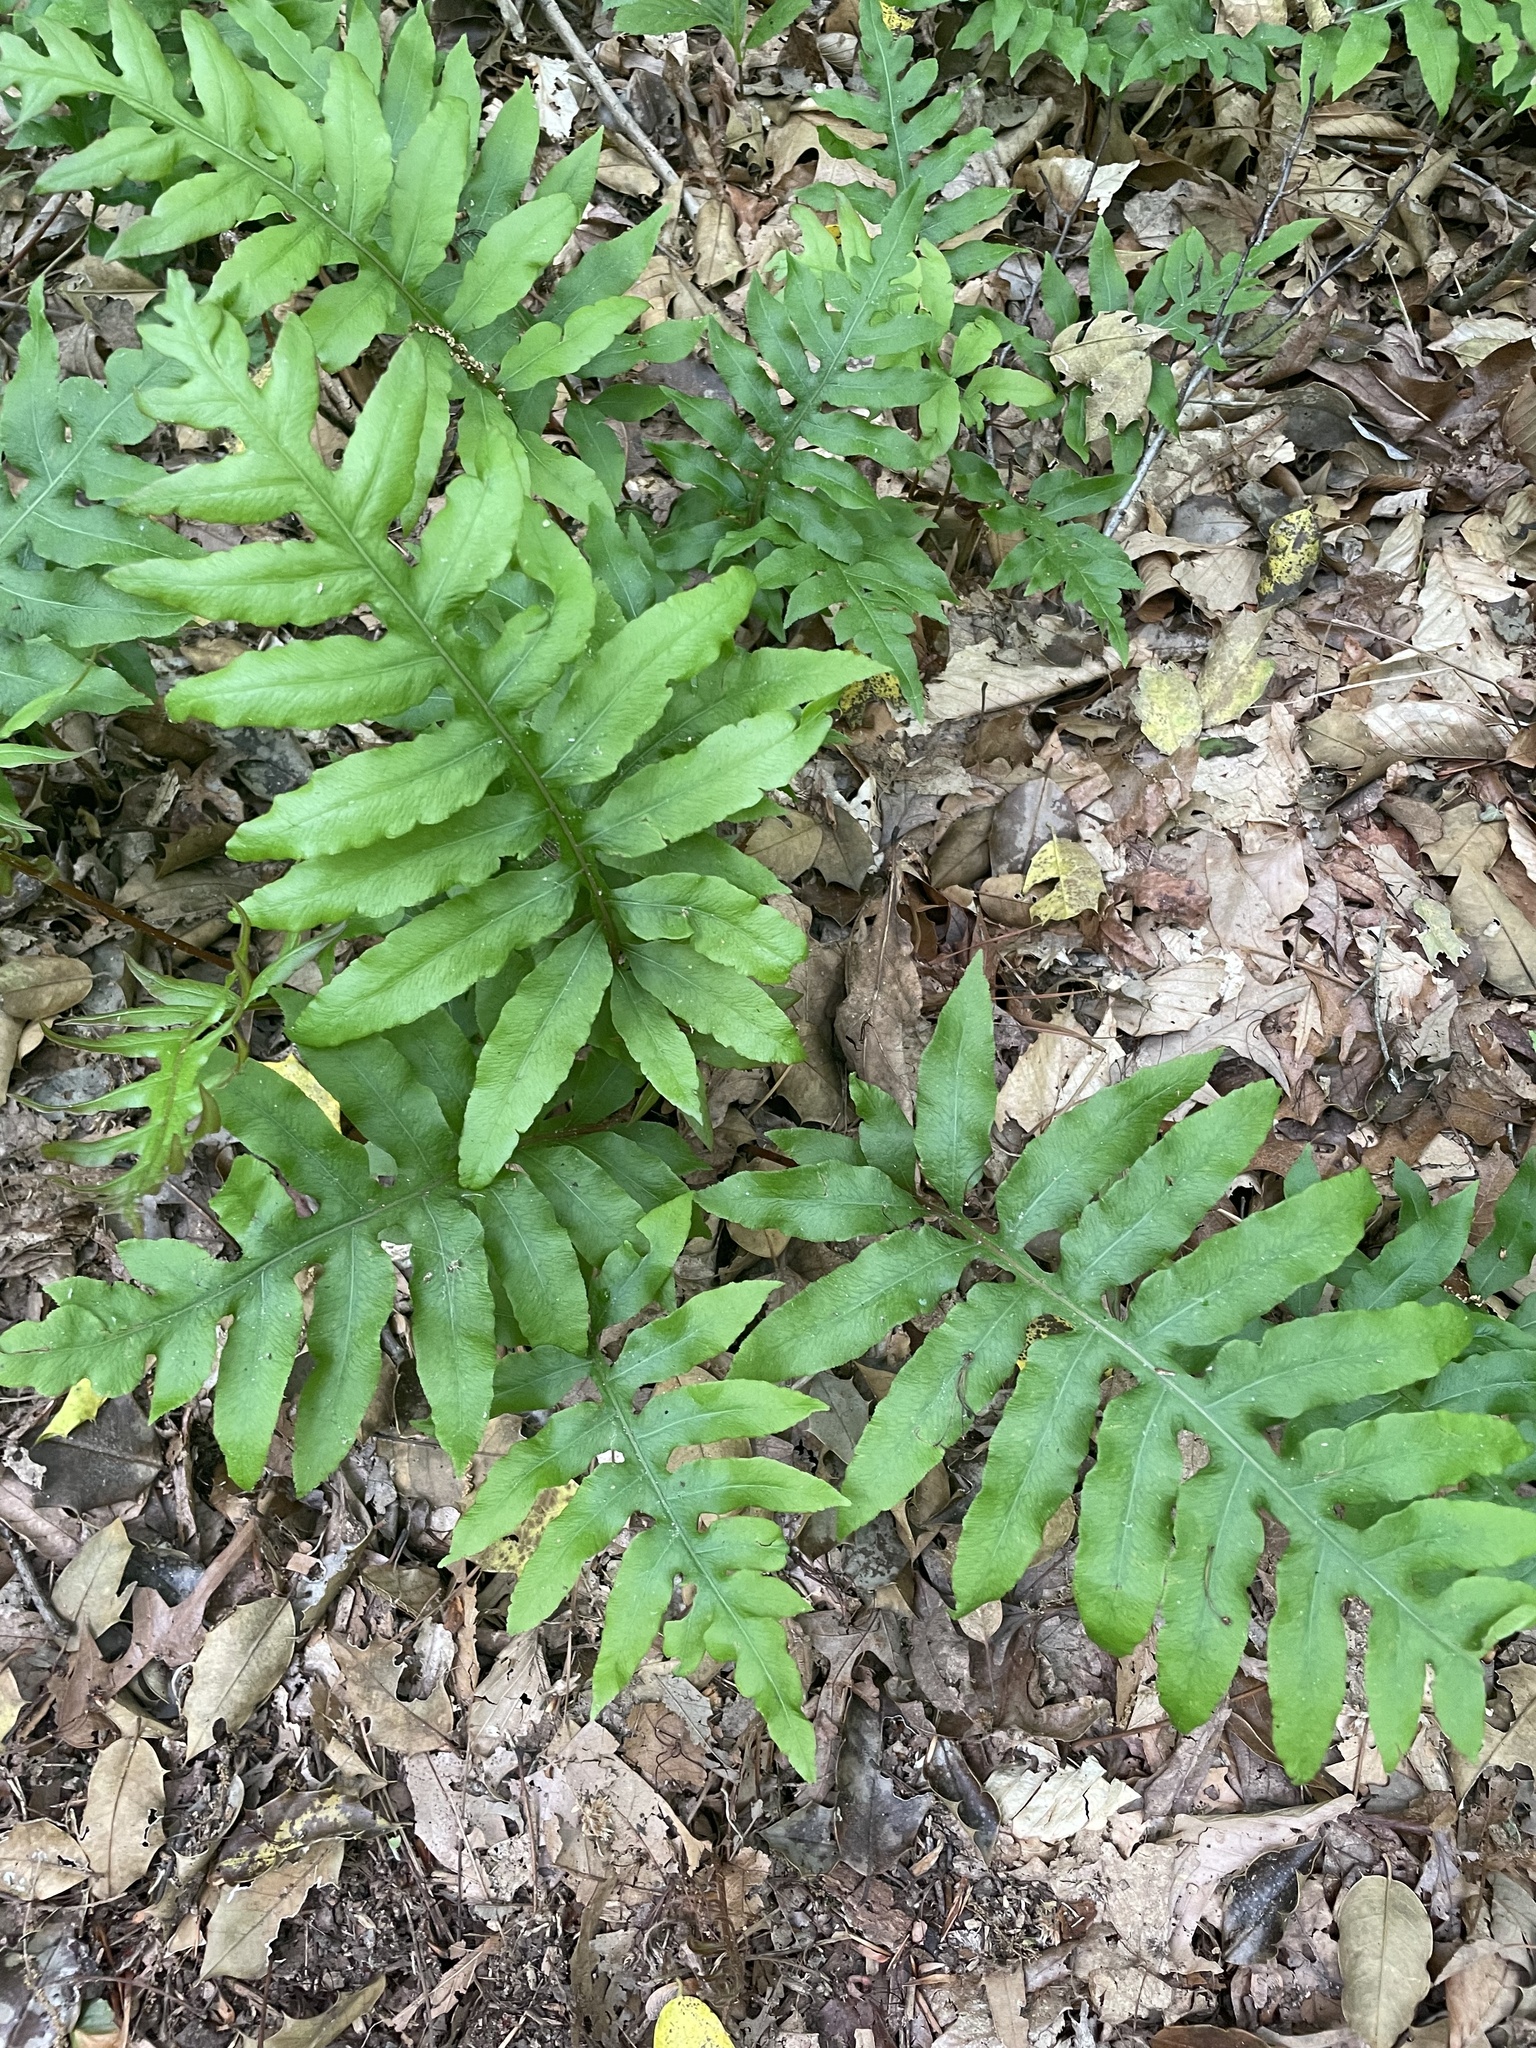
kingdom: Plantae
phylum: Tracheophyta
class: Polypodiopsida
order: Polypodiales
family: Blechnaceae
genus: Lorinseria
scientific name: Lorinseria areolata
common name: Dwarf chain fern
